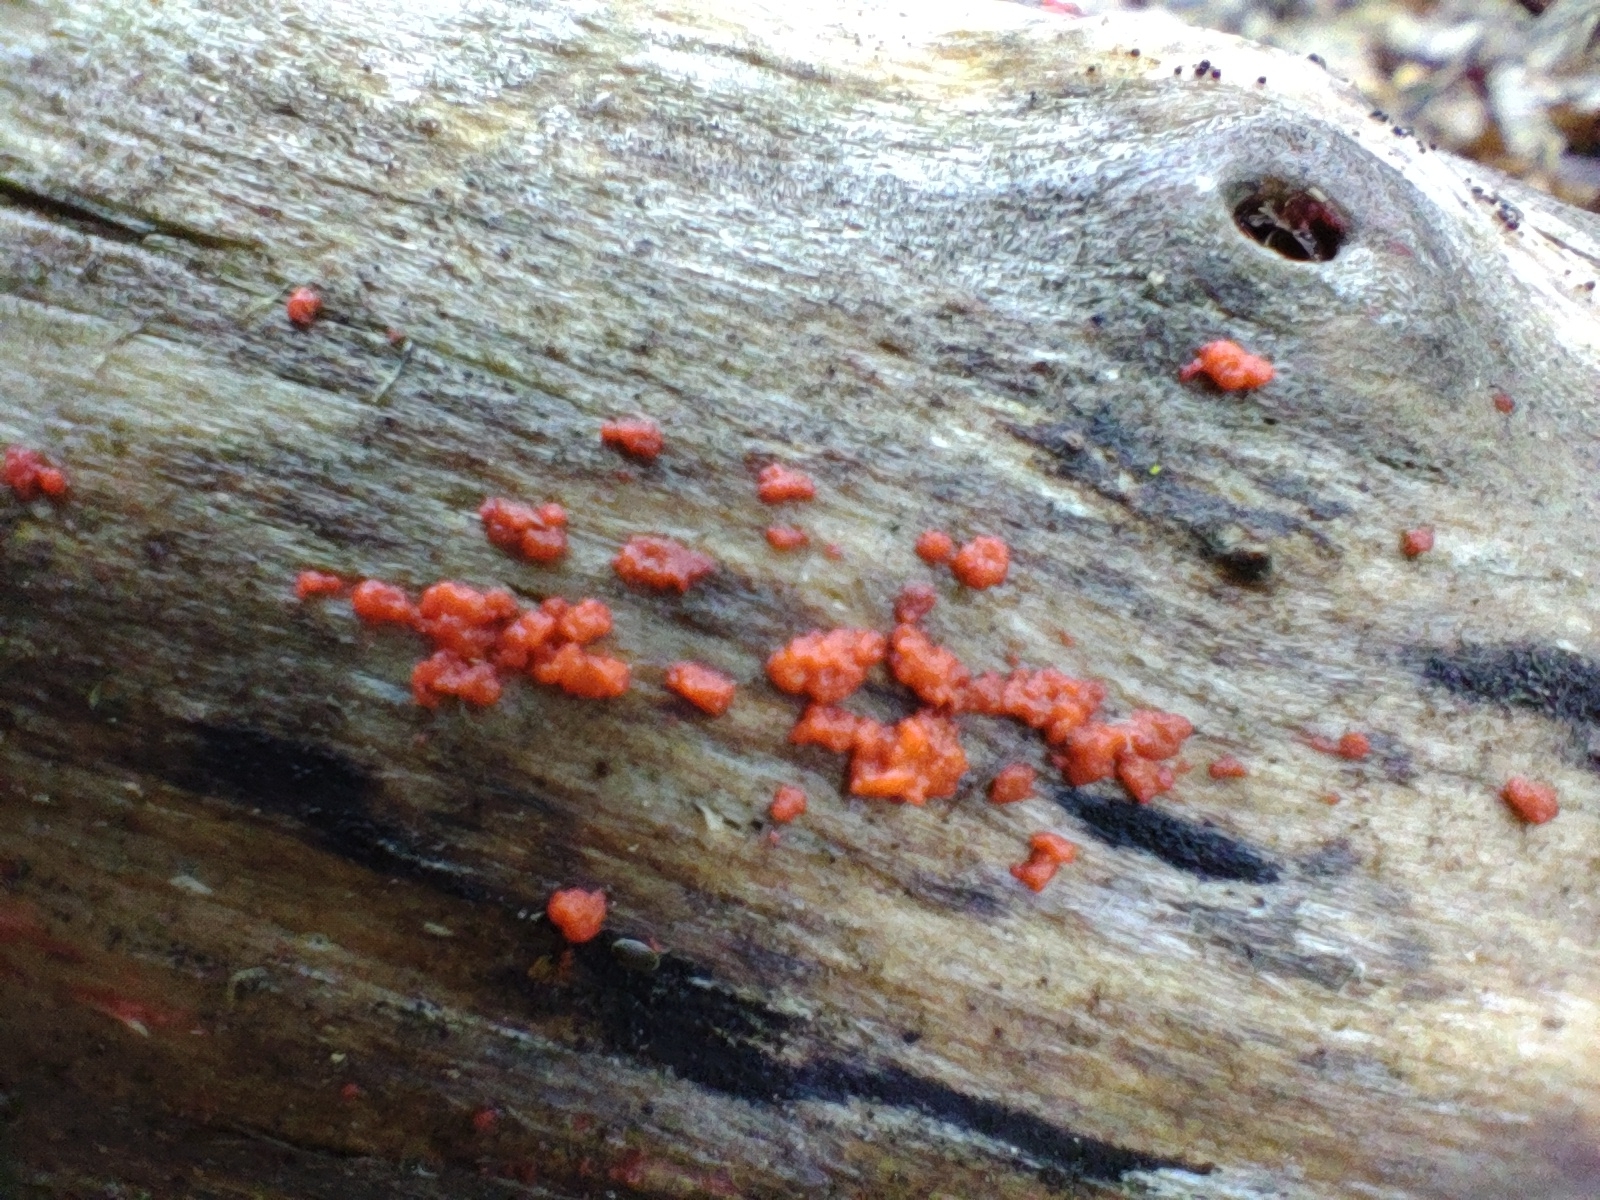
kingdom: Fungi
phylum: Basidiomycota
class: Agaricomycetes
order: Cantharellales
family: Tulasnellaceae
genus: Tulasnella
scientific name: Tulasnella aurantiaca
